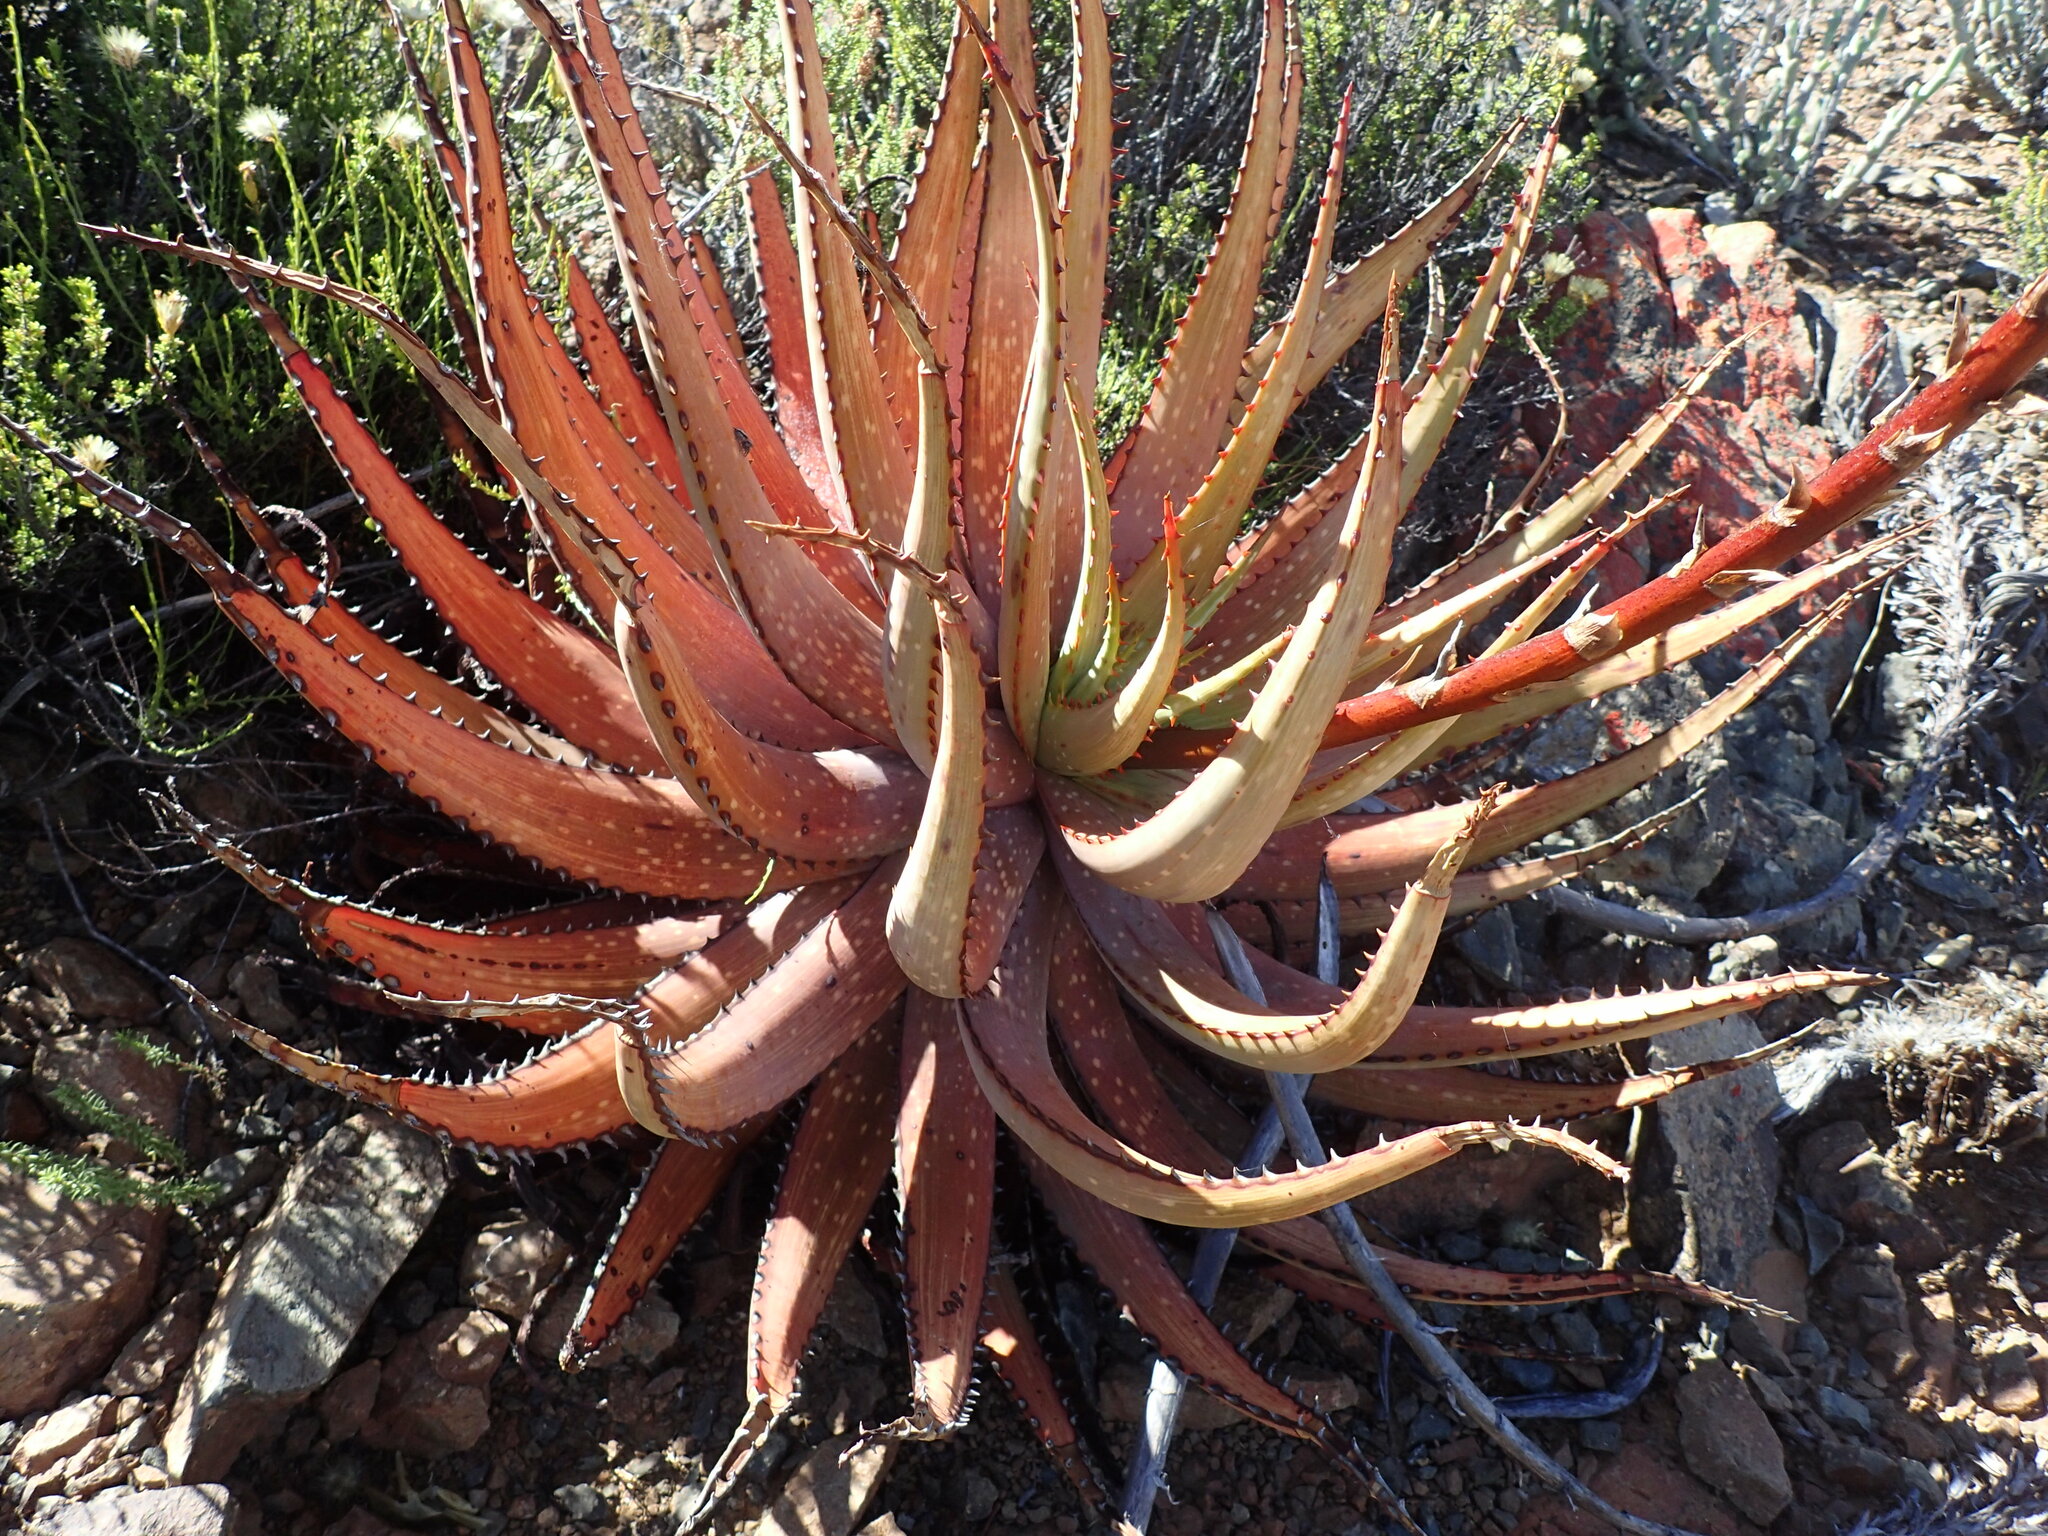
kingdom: Plantae
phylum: Tracheophyta
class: Liliopsida
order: Asparagales
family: Asphodelaceae
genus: Aloe
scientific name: Aloe microstigma
